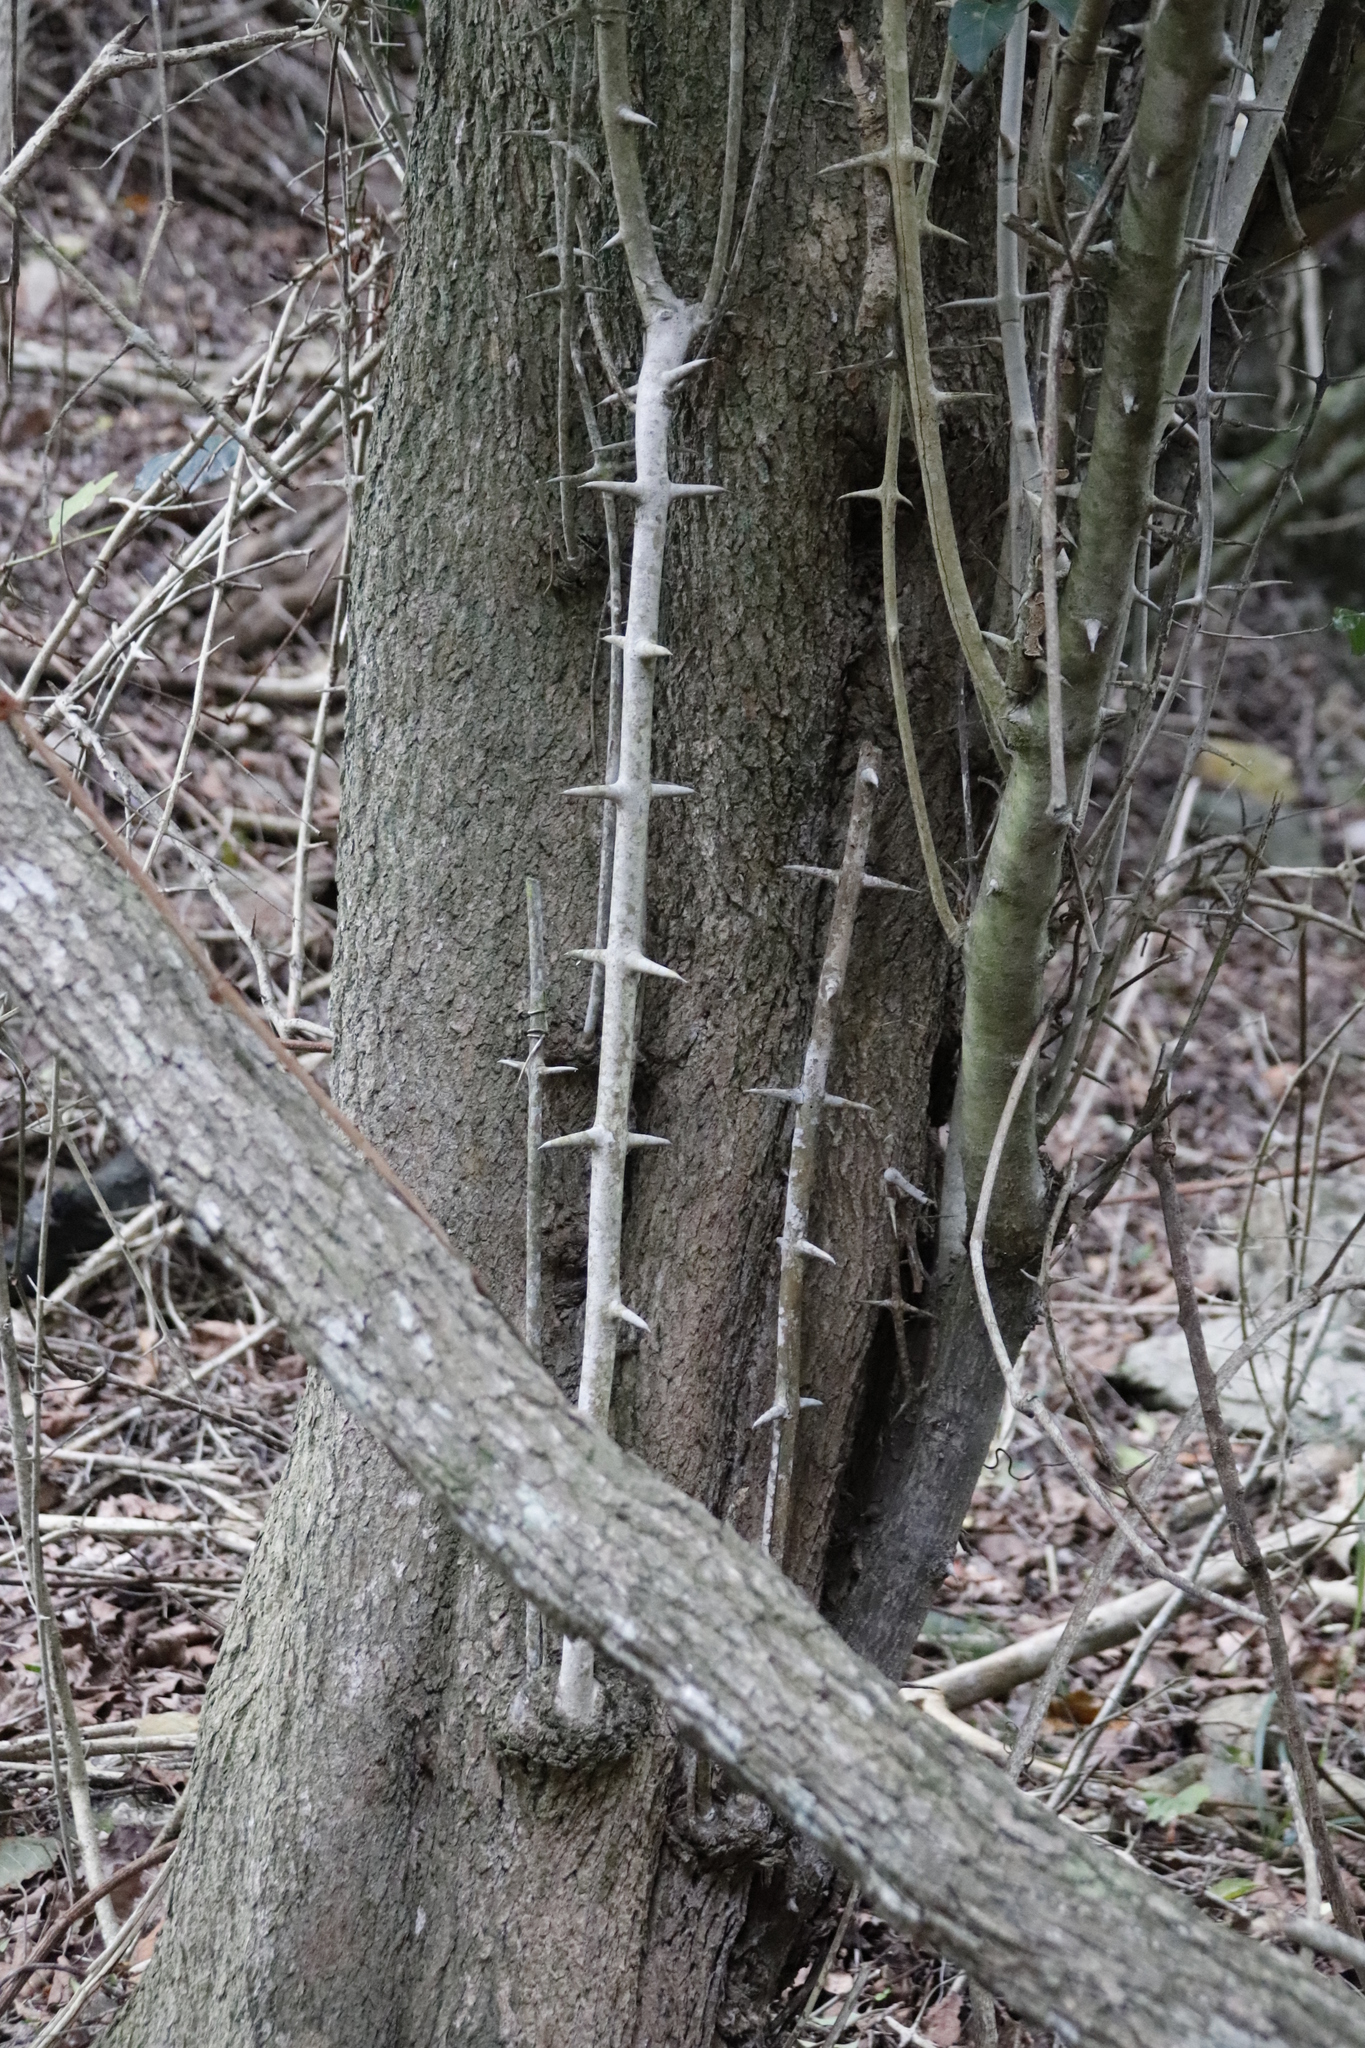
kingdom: Plantae
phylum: Tracheophyta
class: Magnoliopsida
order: Gentianales
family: Rubiaceae
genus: Canthium
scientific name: Canthium inerme
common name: Unarmed turkey-berry
